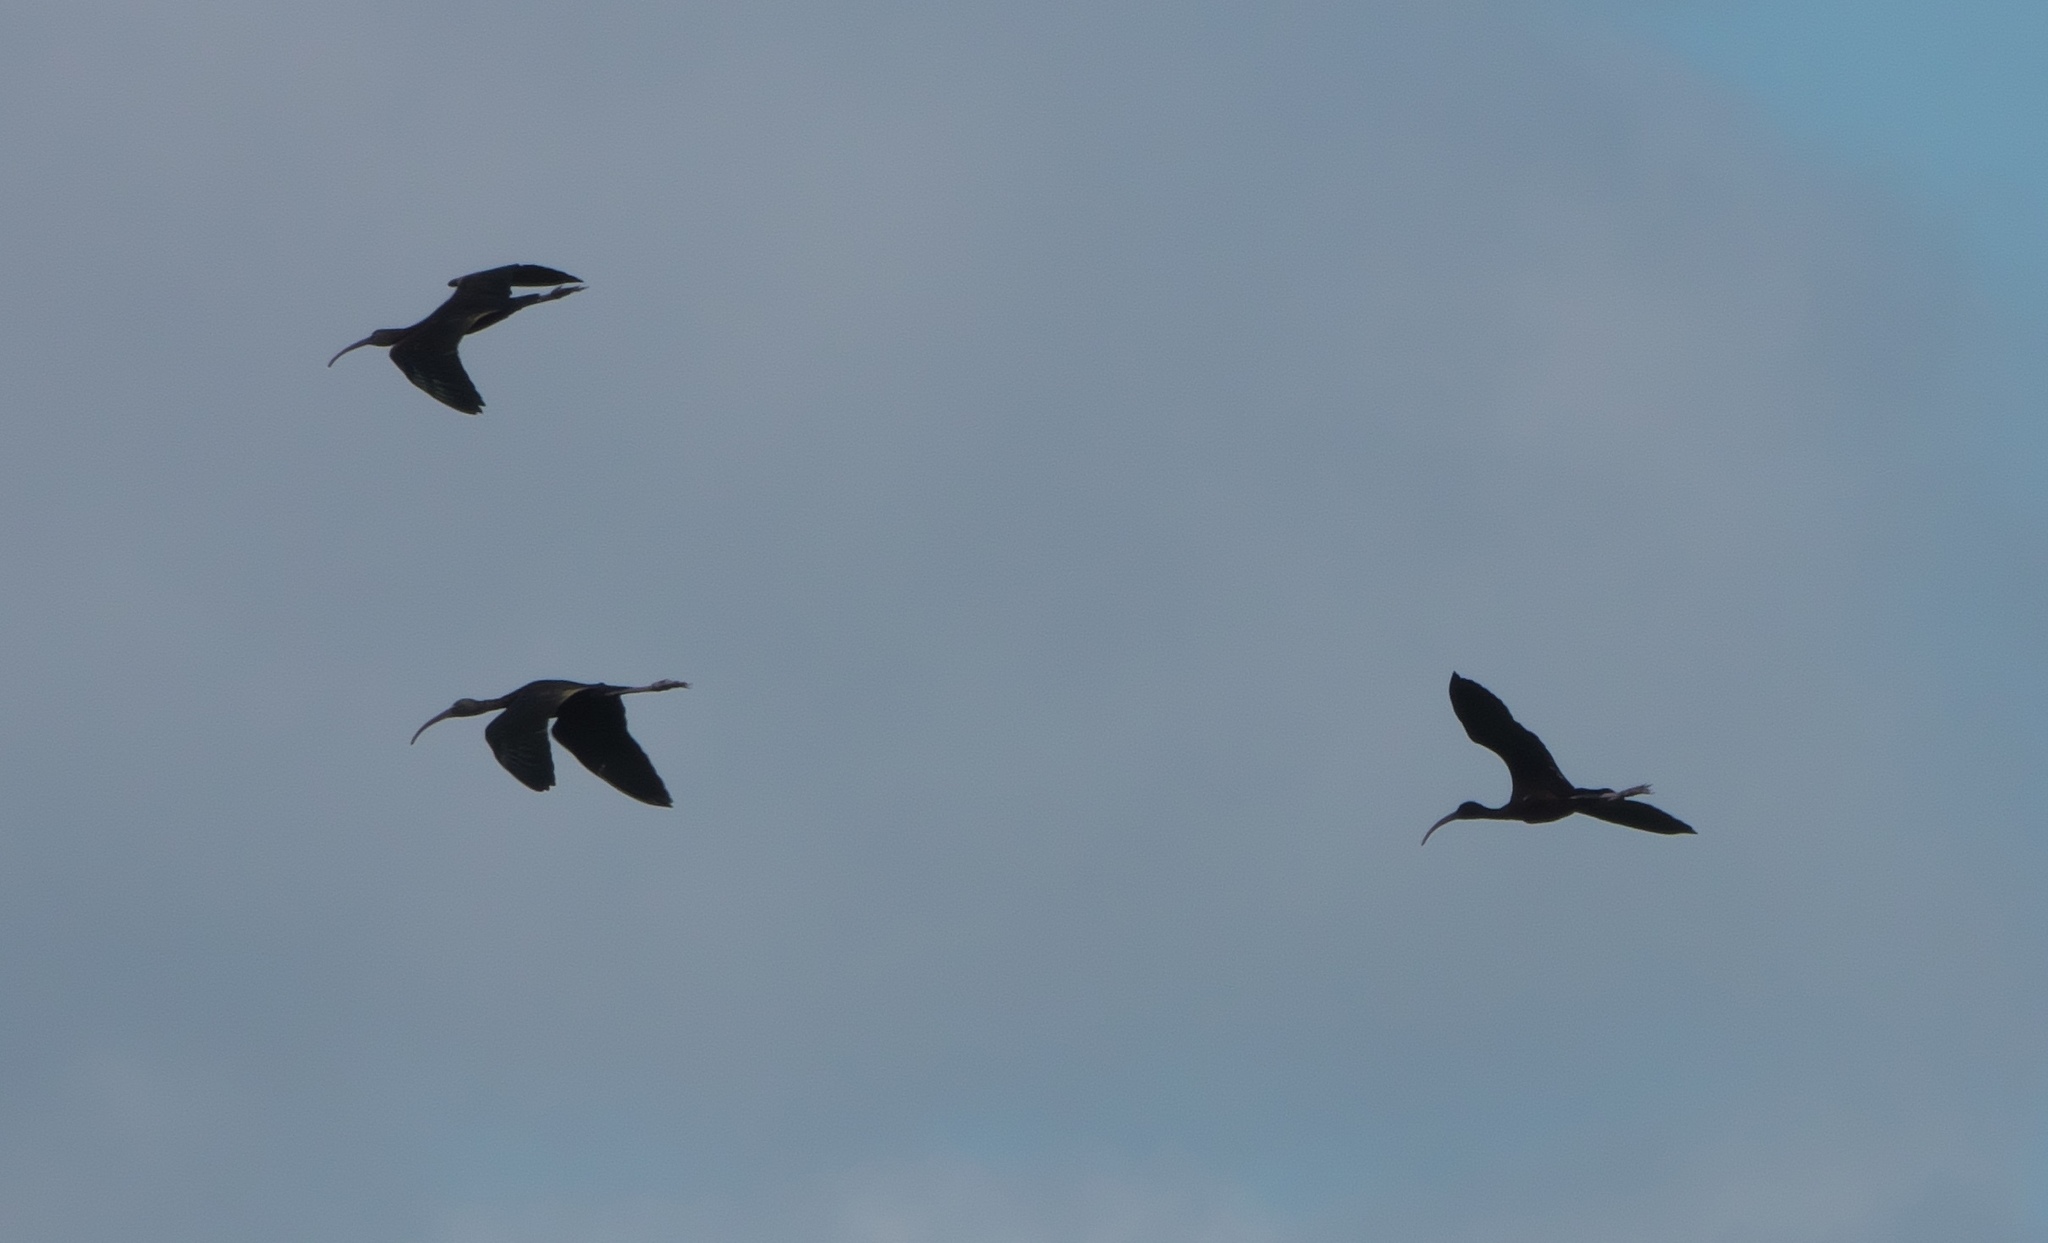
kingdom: Animalia
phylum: Chordata
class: Aves
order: Pelecaniformes
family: Threskiornithidae
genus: Plegadis
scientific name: Plegadis falcinellus
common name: Glossy ibis
